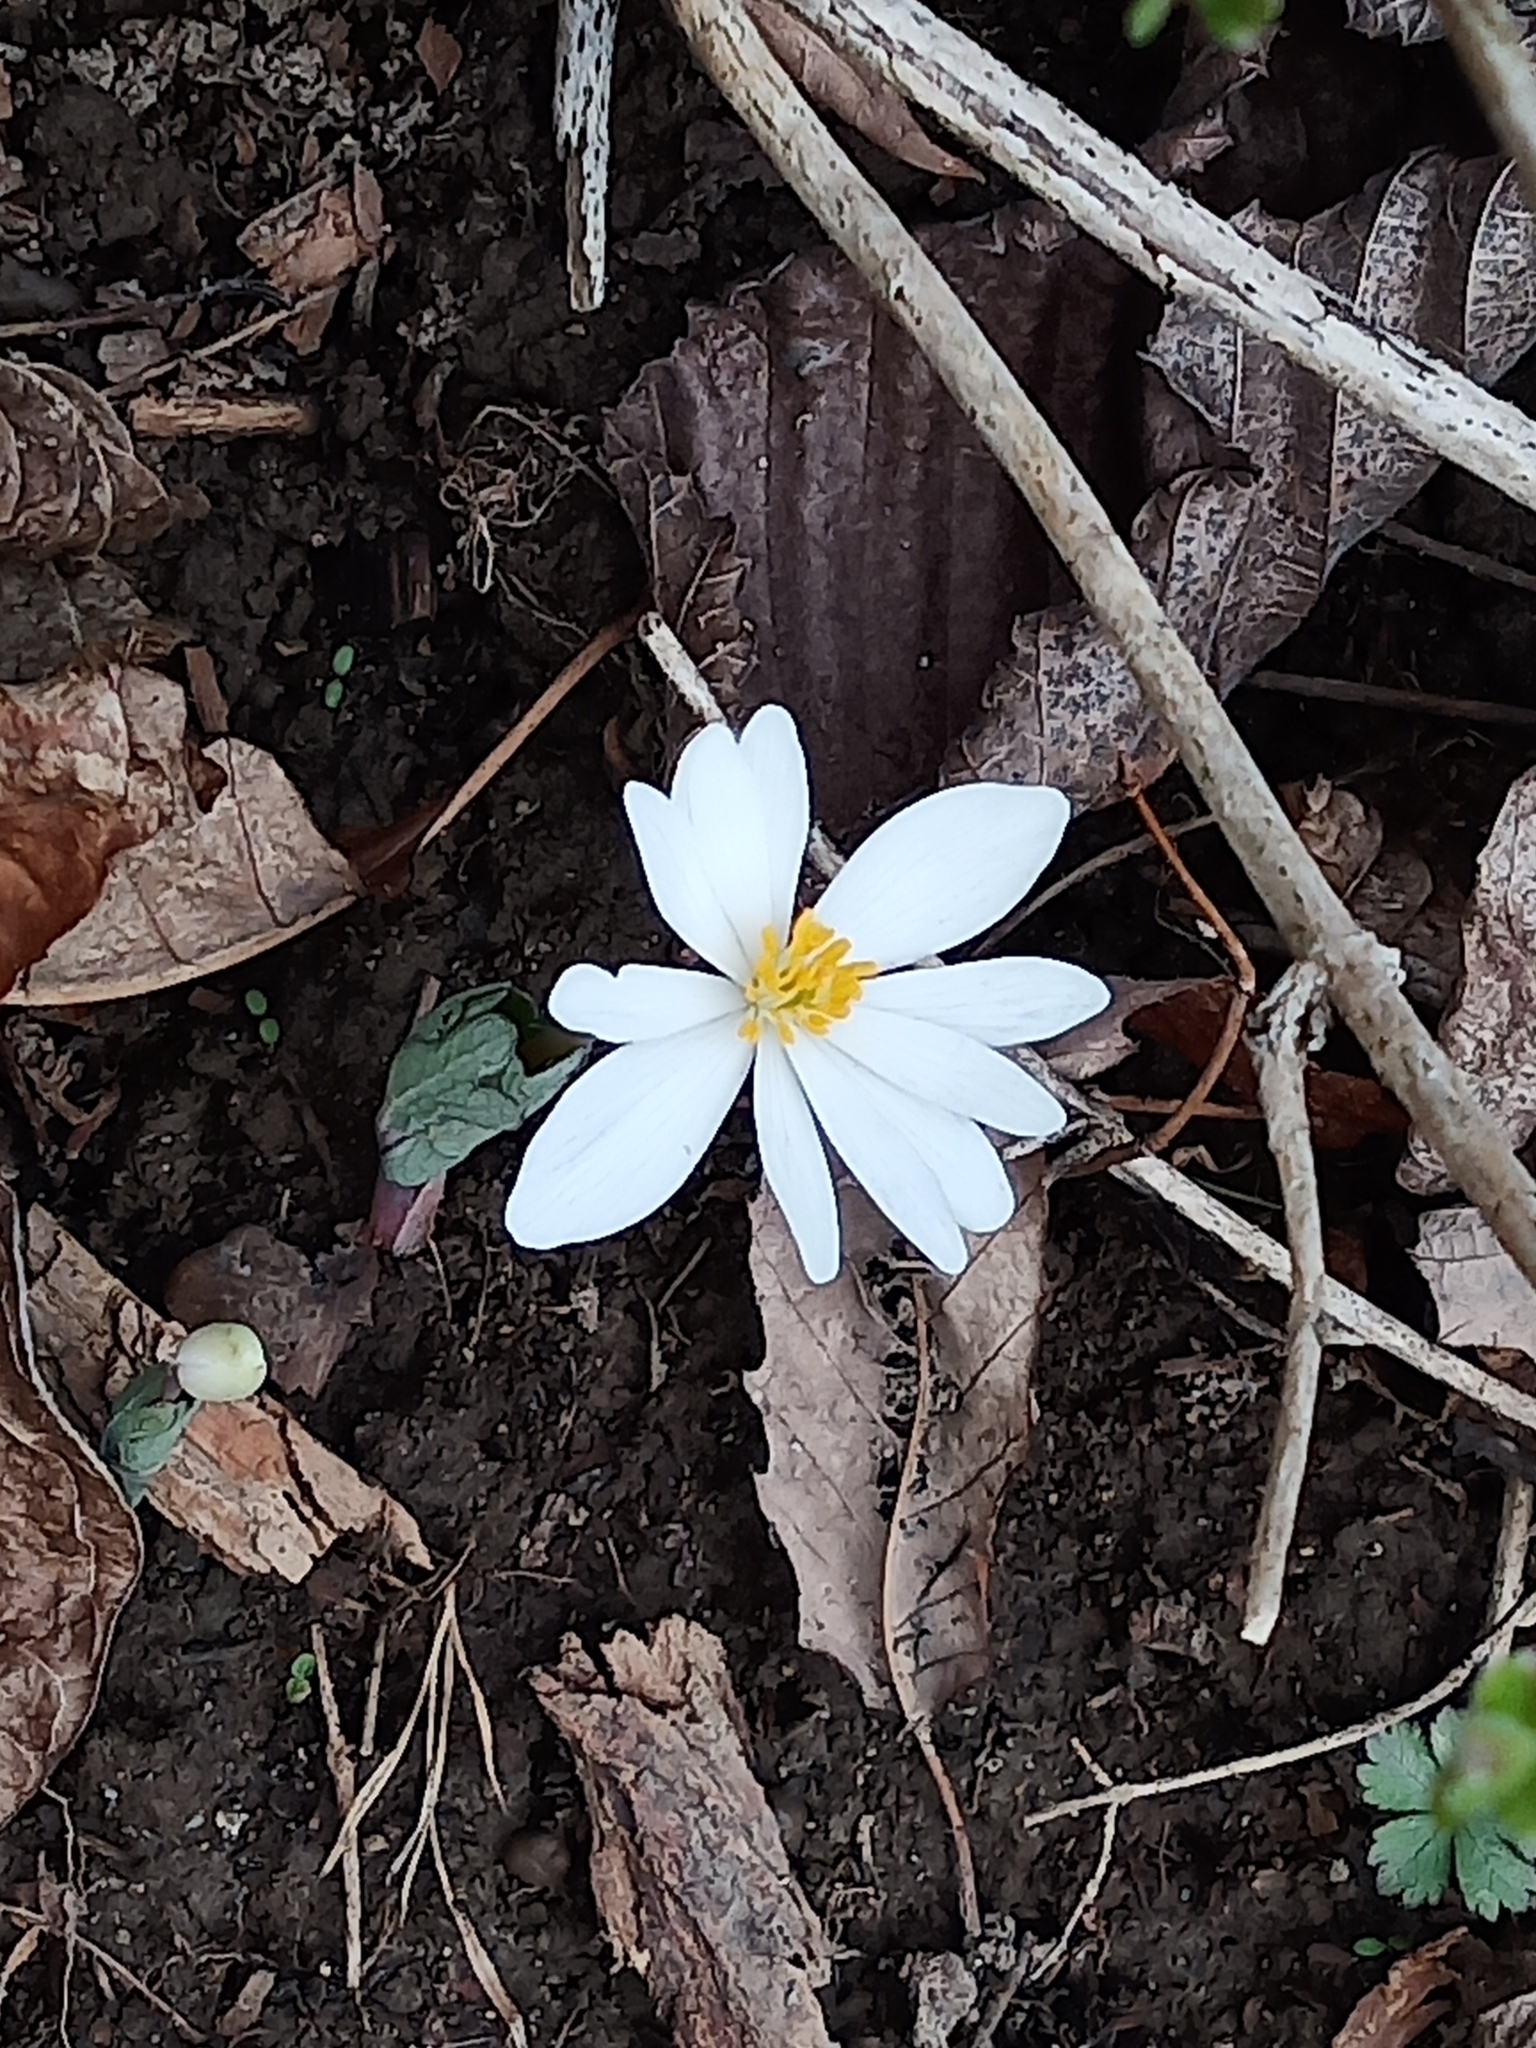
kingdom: Plantae
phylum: Tracheophyta
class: Magnoliopsida
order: Ranunculales
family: Papaveraceae
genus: Sanguinaria
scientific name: Sanguinaria canadensis
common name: Bloodroot
